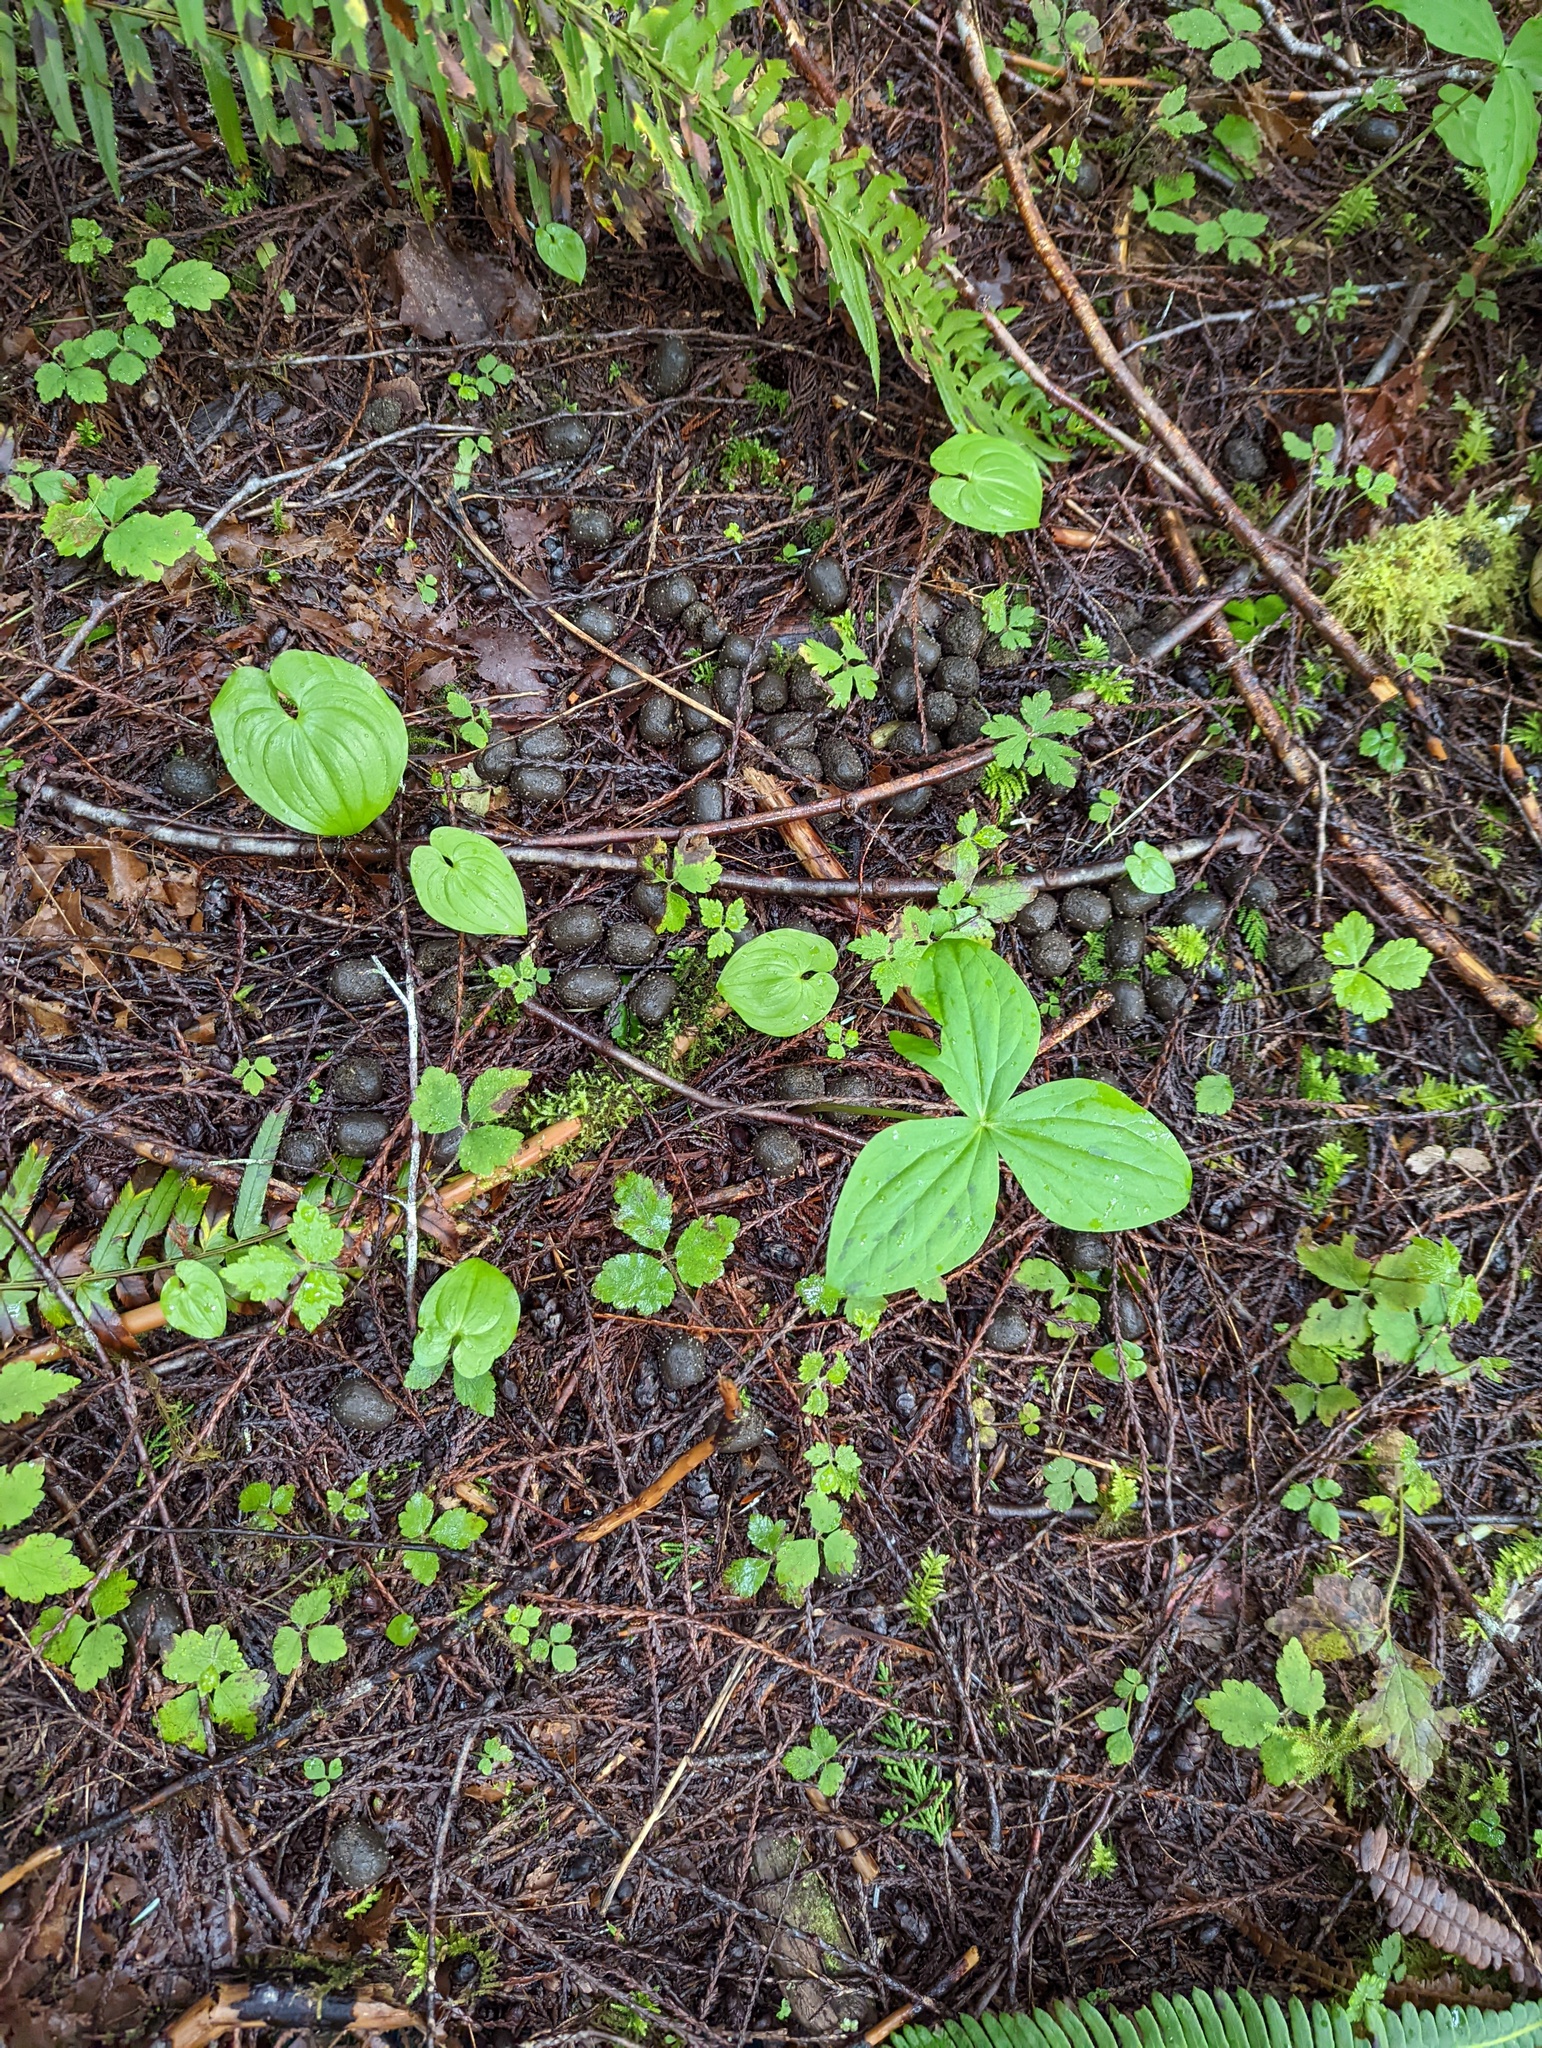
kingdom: Plantae
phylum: Tracheophyta
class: Liliopsida
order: Asparagales
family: Asparagaceae
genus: Maianthemum
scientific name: Maianthemum dilatatum
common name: False lily-of-the-valley
